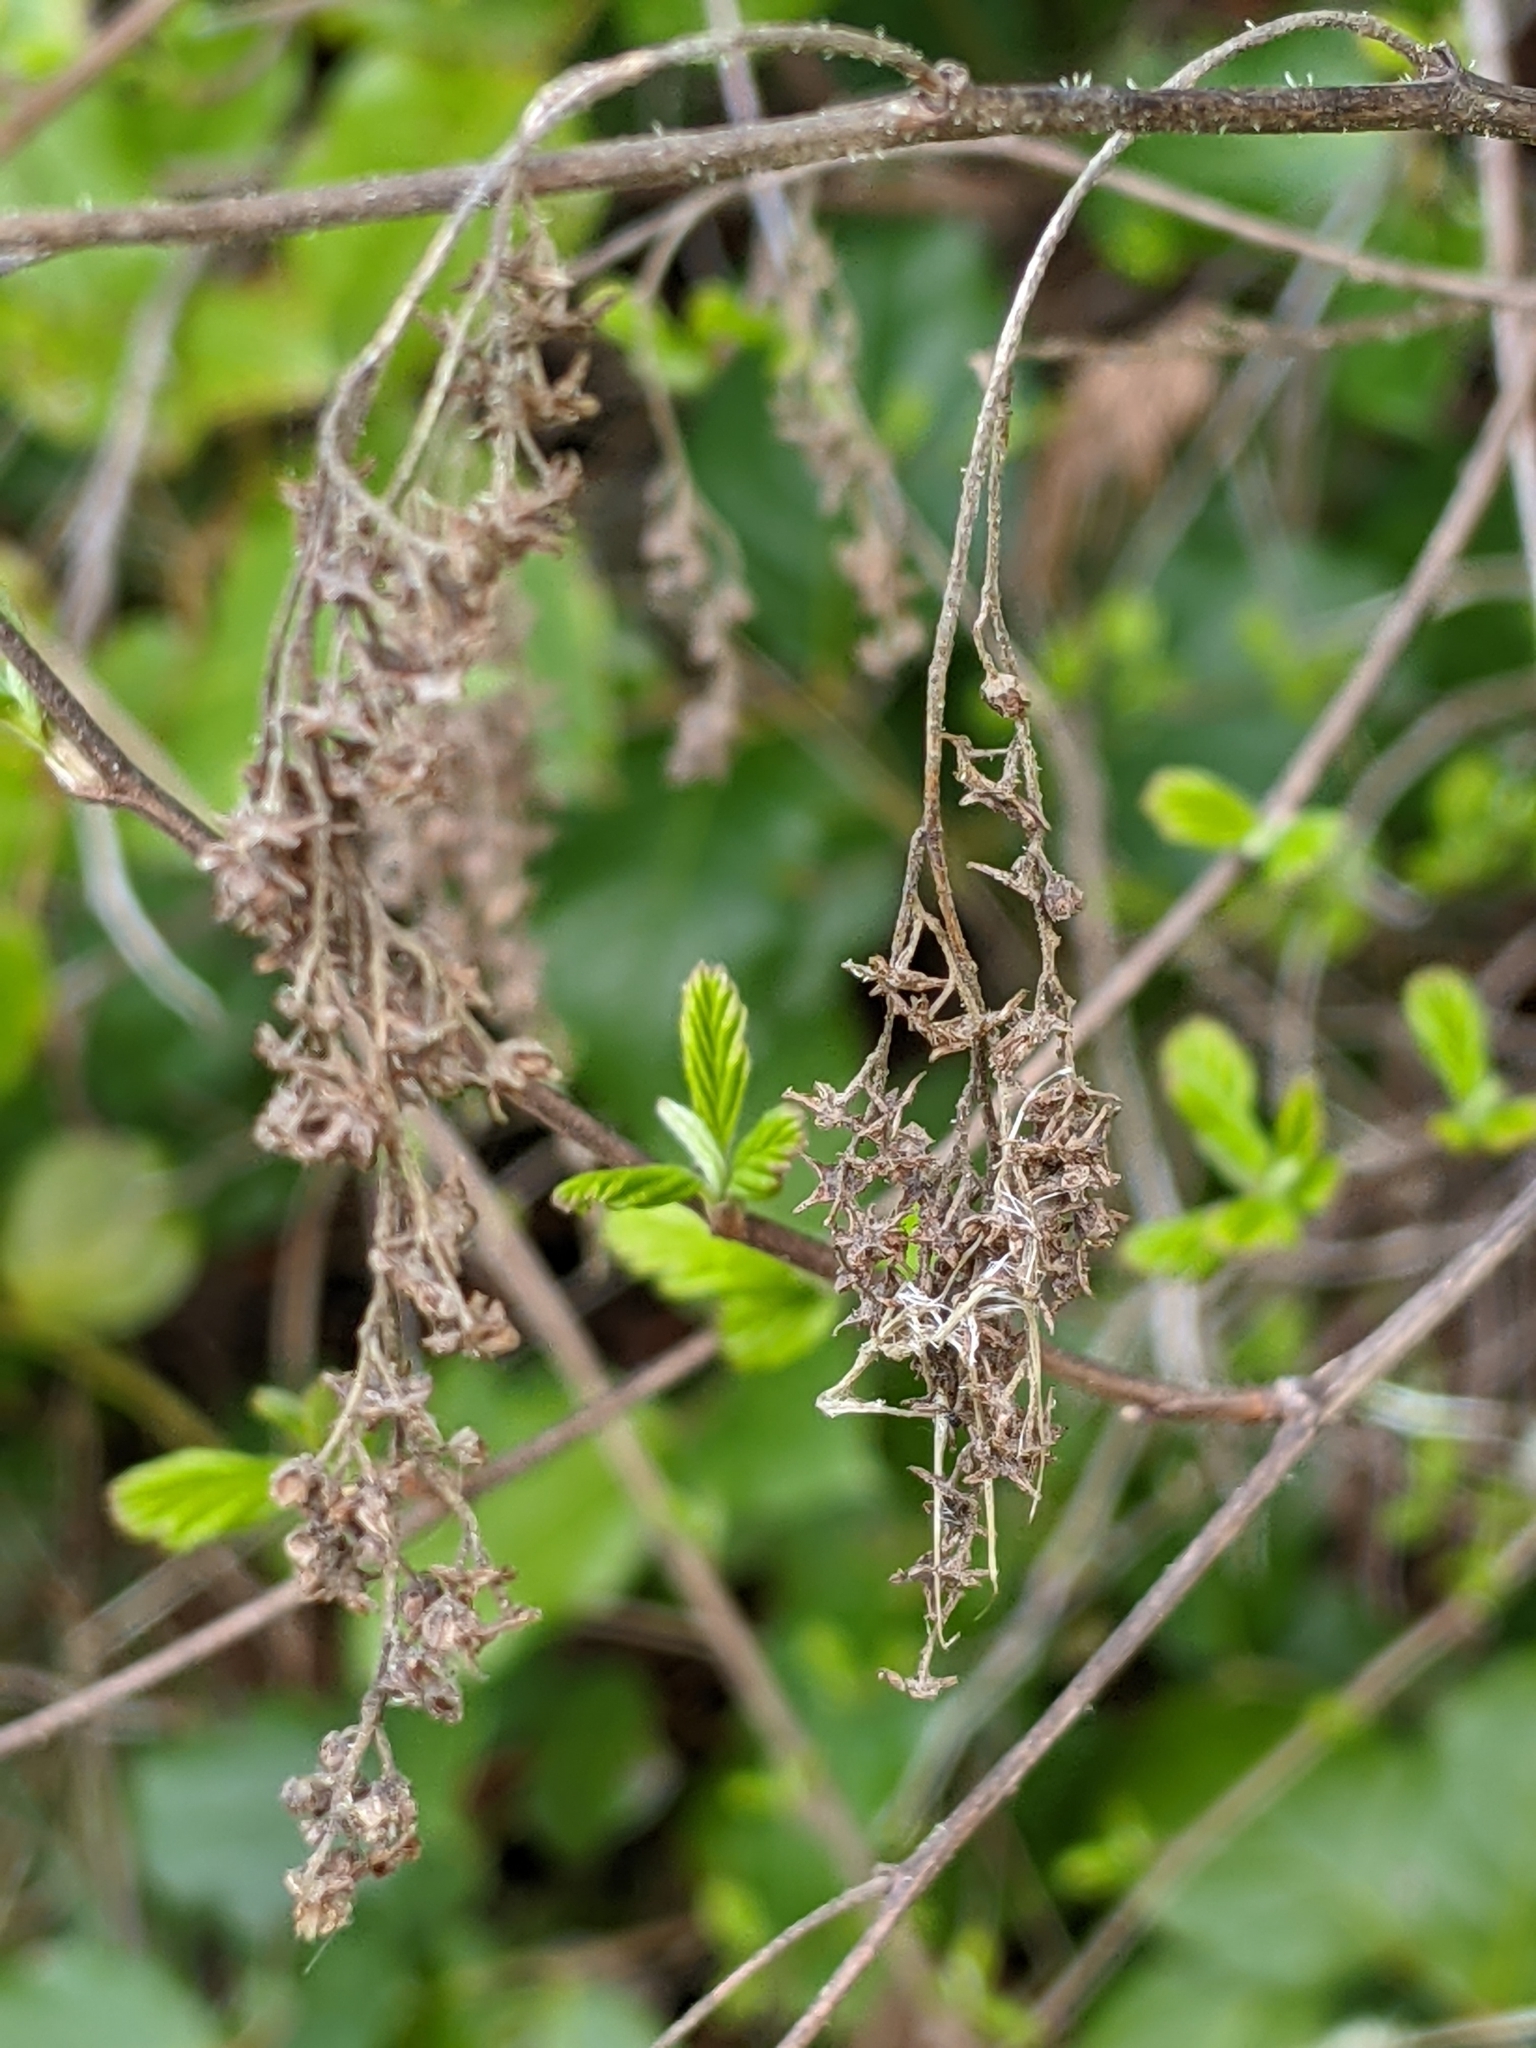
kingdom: Plantae
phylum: Tracheophyta
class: Magnoliopsida
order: Rosales
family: Rosaceae
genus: Holodiscus
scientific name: Holodiscus discolor
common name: Oceanspray
